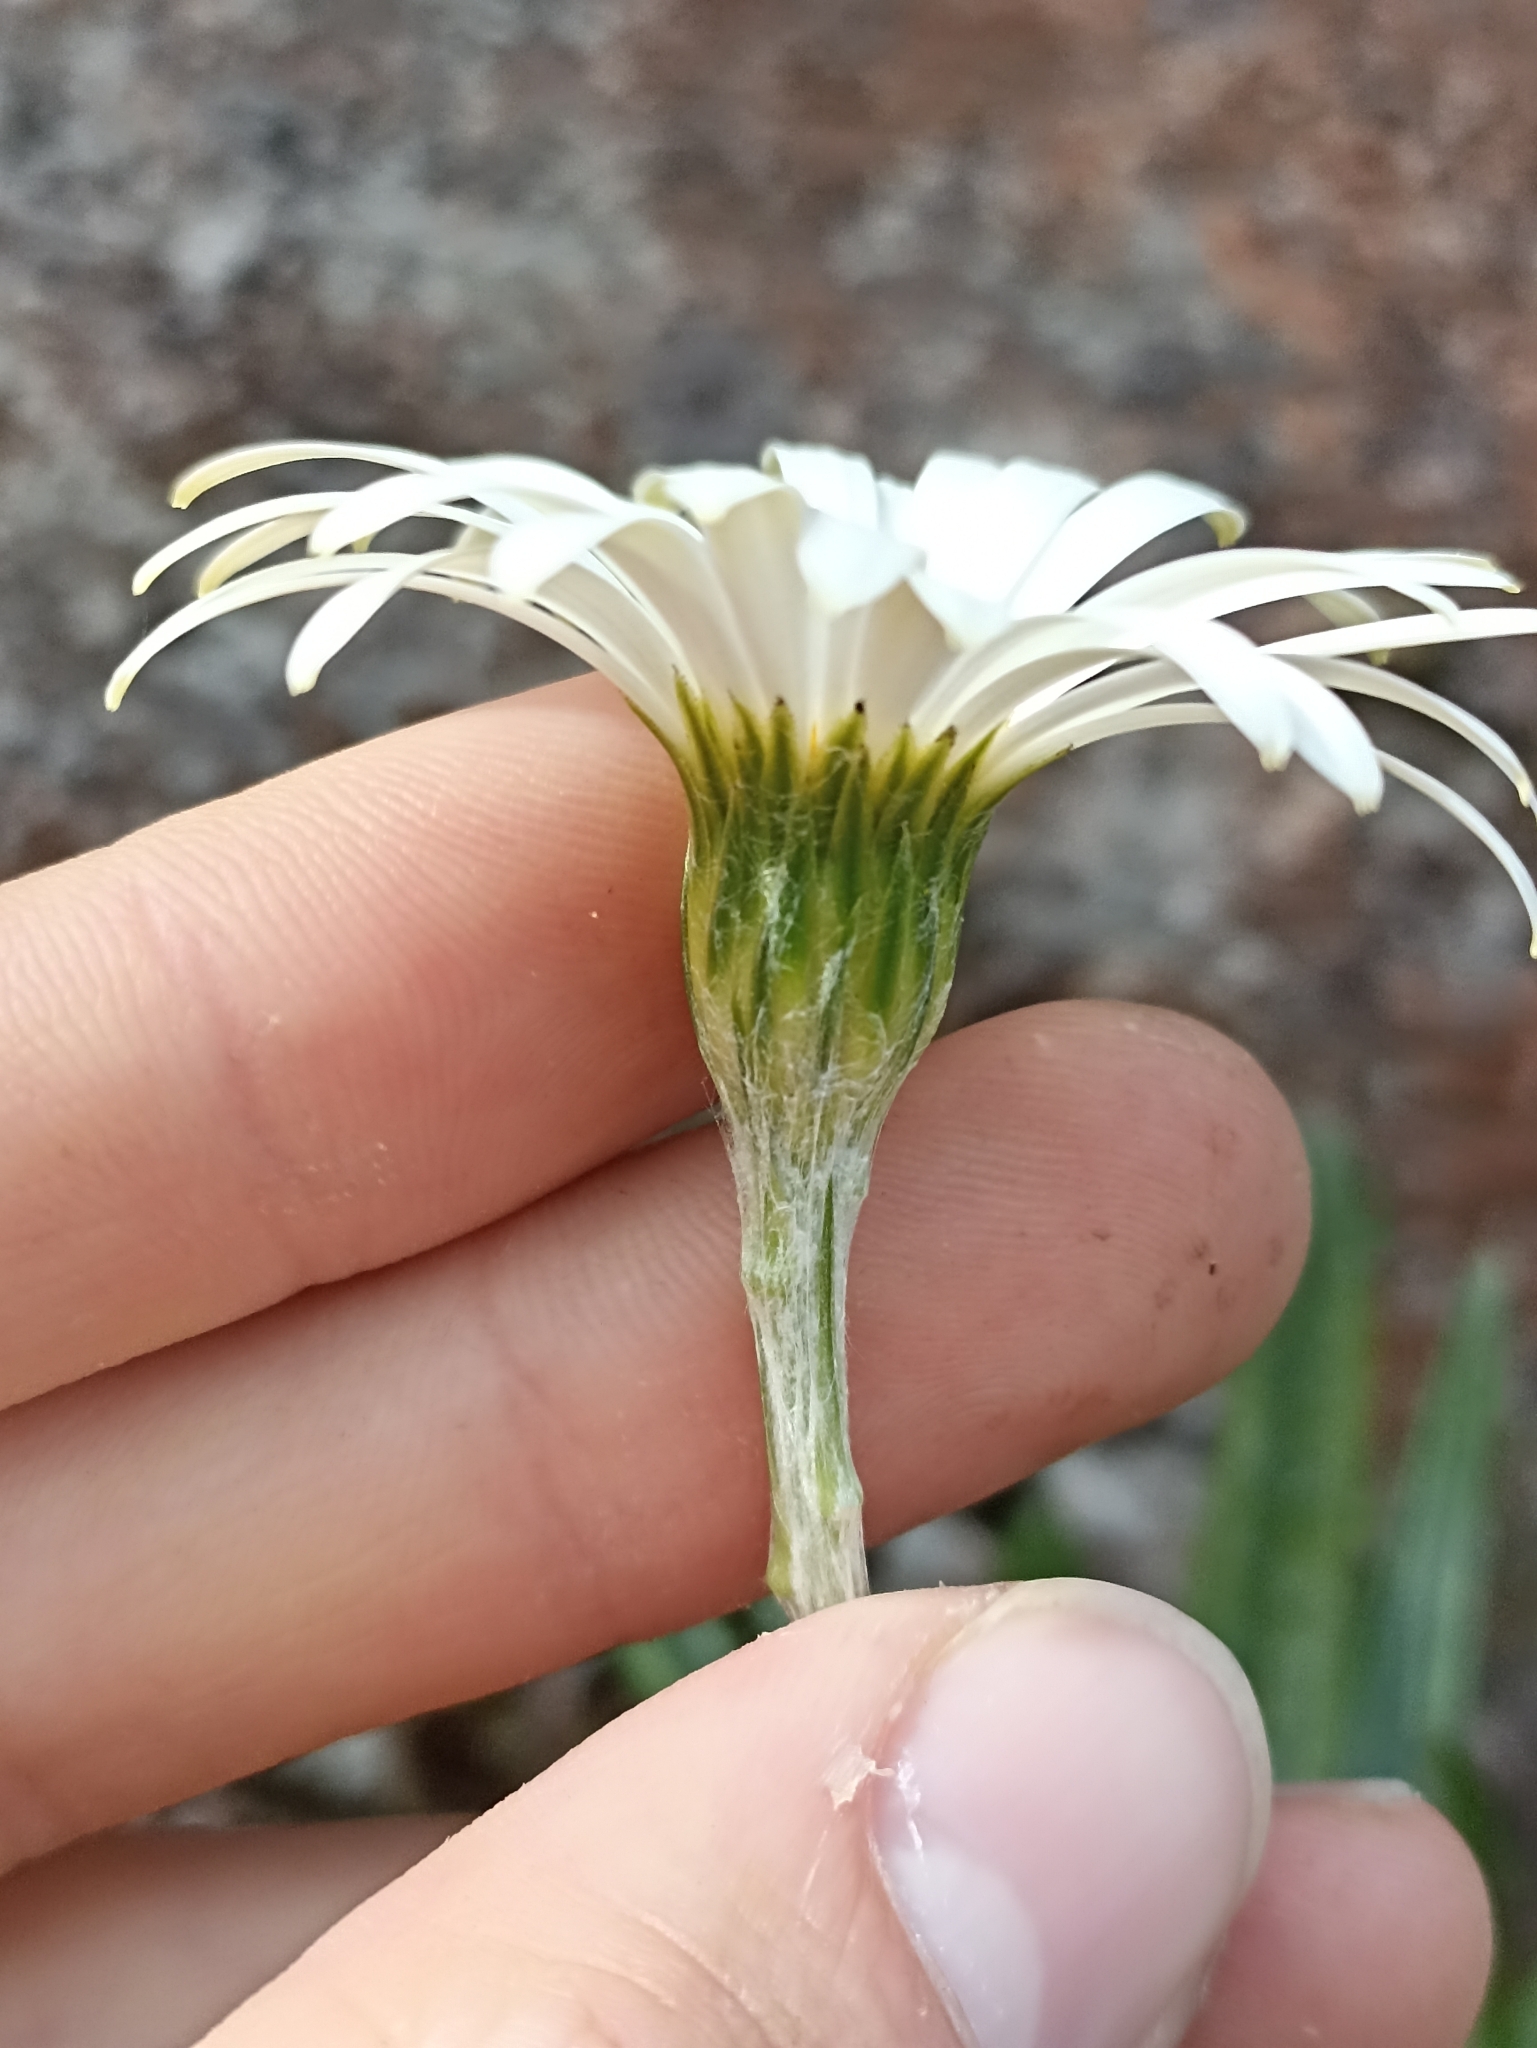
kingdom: Plantae
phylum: Tracheophyta
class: Magnoliopsida
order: Asterales
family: Asteraceae
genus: Celmisia
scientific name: Celmisia adamsii
